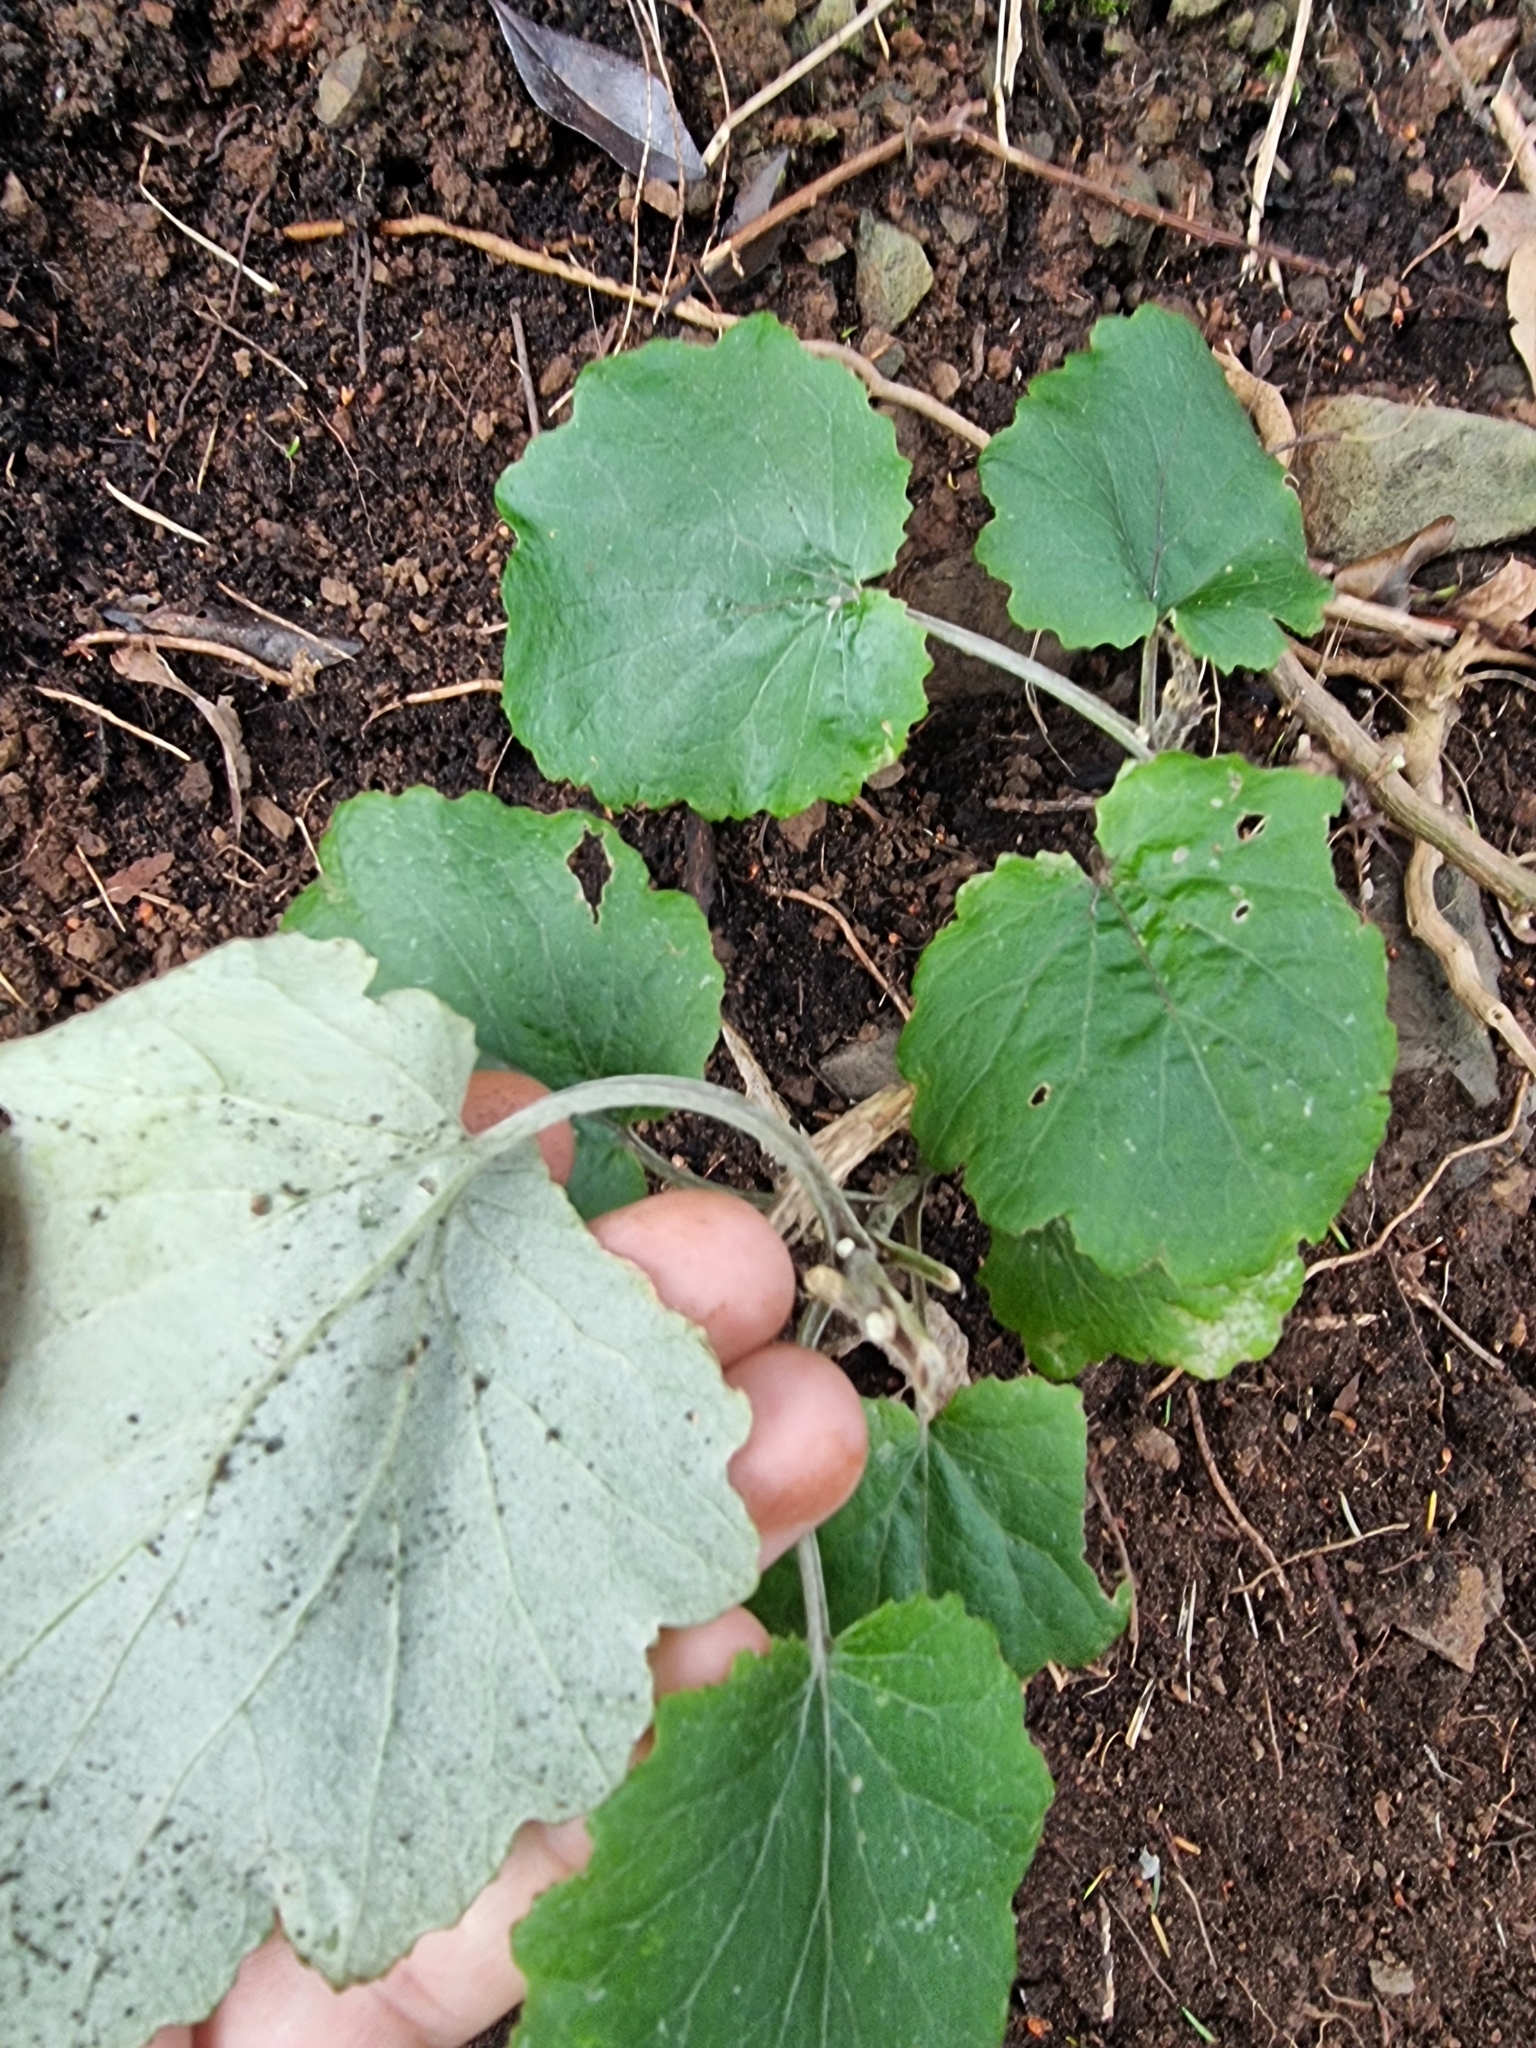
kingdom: Plantae
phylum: Tracheophyta
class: Magnoliopsida
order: Asterales
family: Asteraceae
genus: Pericallis
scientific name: Pericallis aurita
